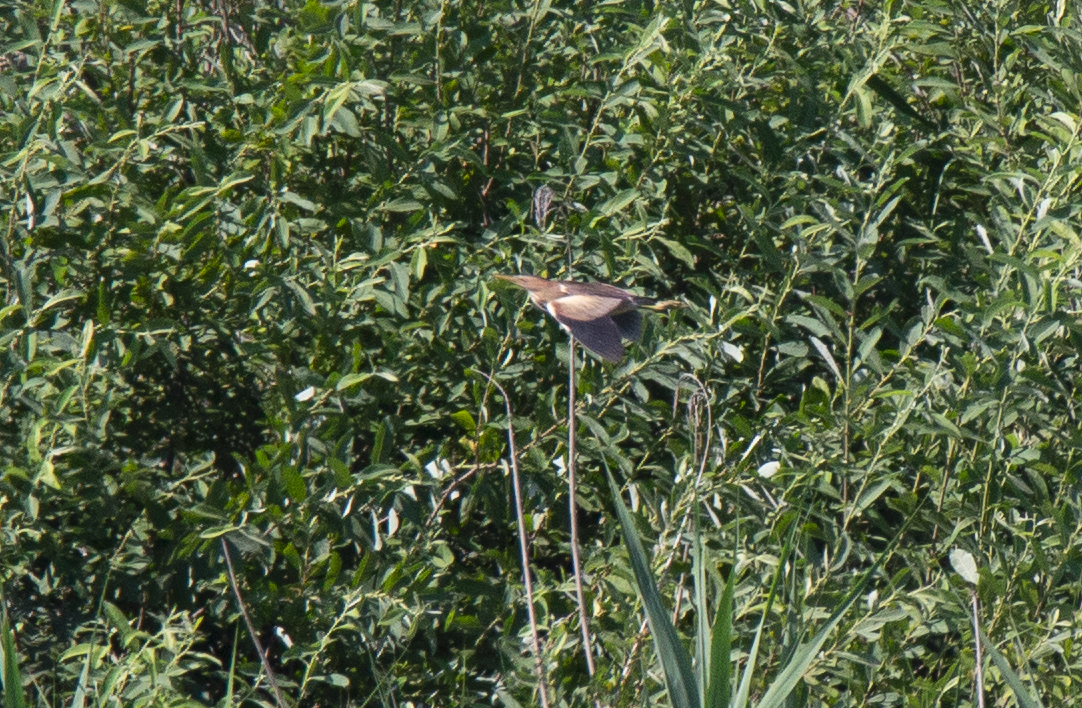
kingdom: Animalia
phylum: Chordata
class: Aves
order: Pelecaniformes
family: Ardeidae
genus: Ixobrychus
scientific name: Ixobrychus minutus
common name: Little bittern
